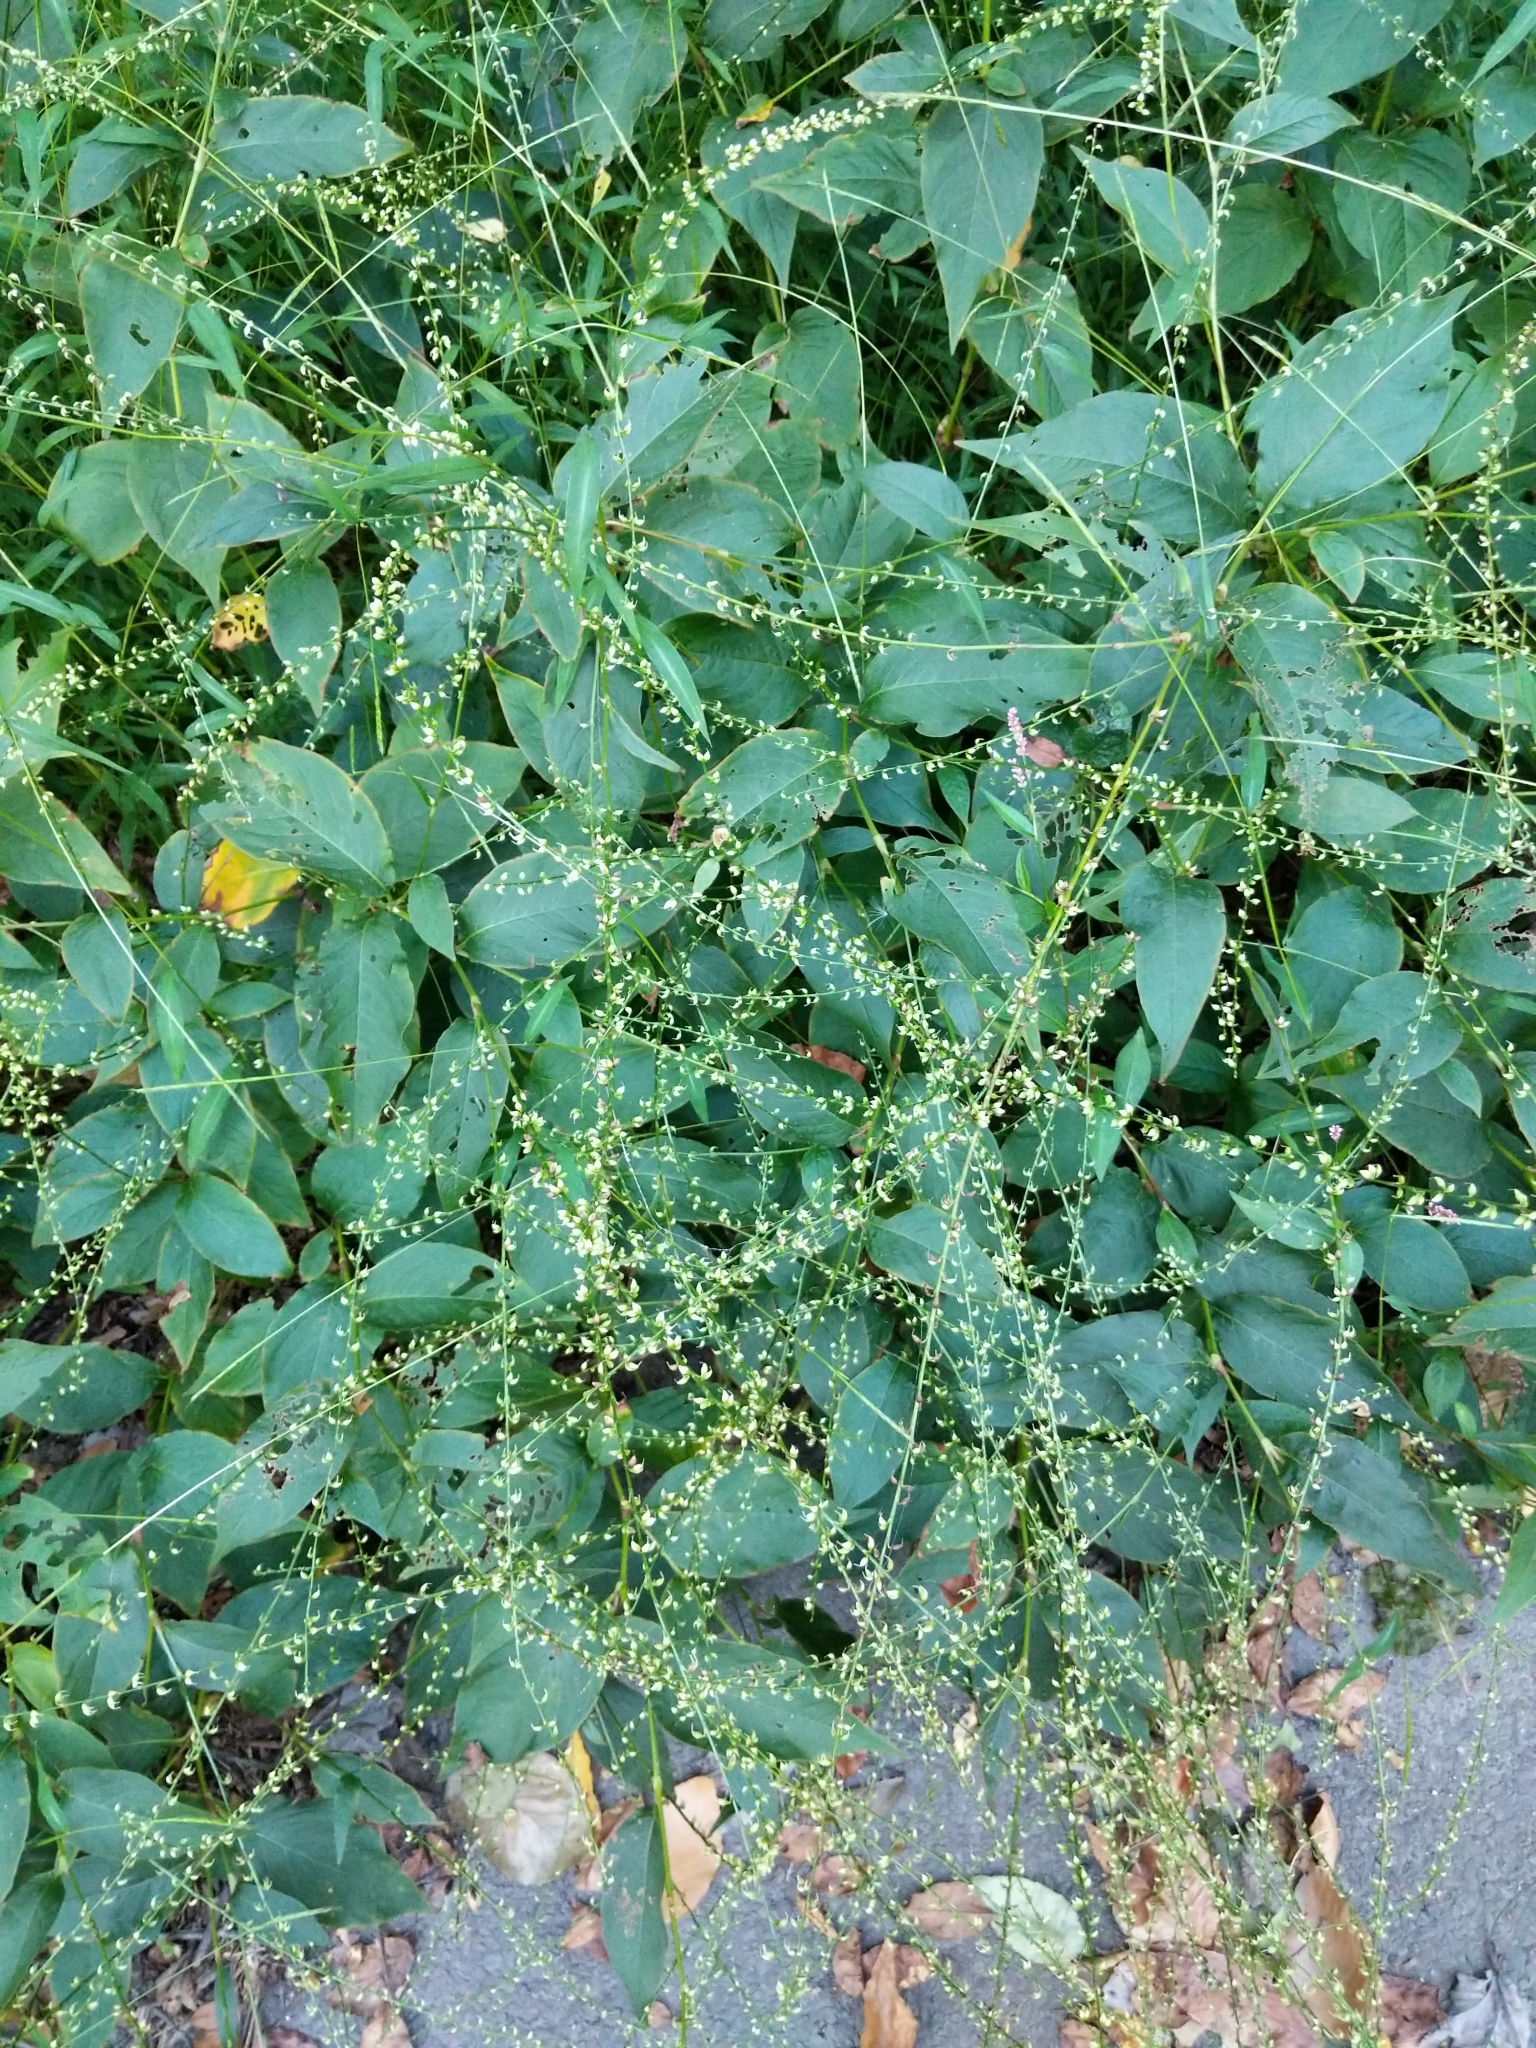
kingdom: Plantae
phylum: Tracheophyta
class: Magnoliopsida
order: Caryophyllales
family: Polygonaceae
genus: Persicaria
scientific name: Persicaria virginiana
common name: Jumpseed
